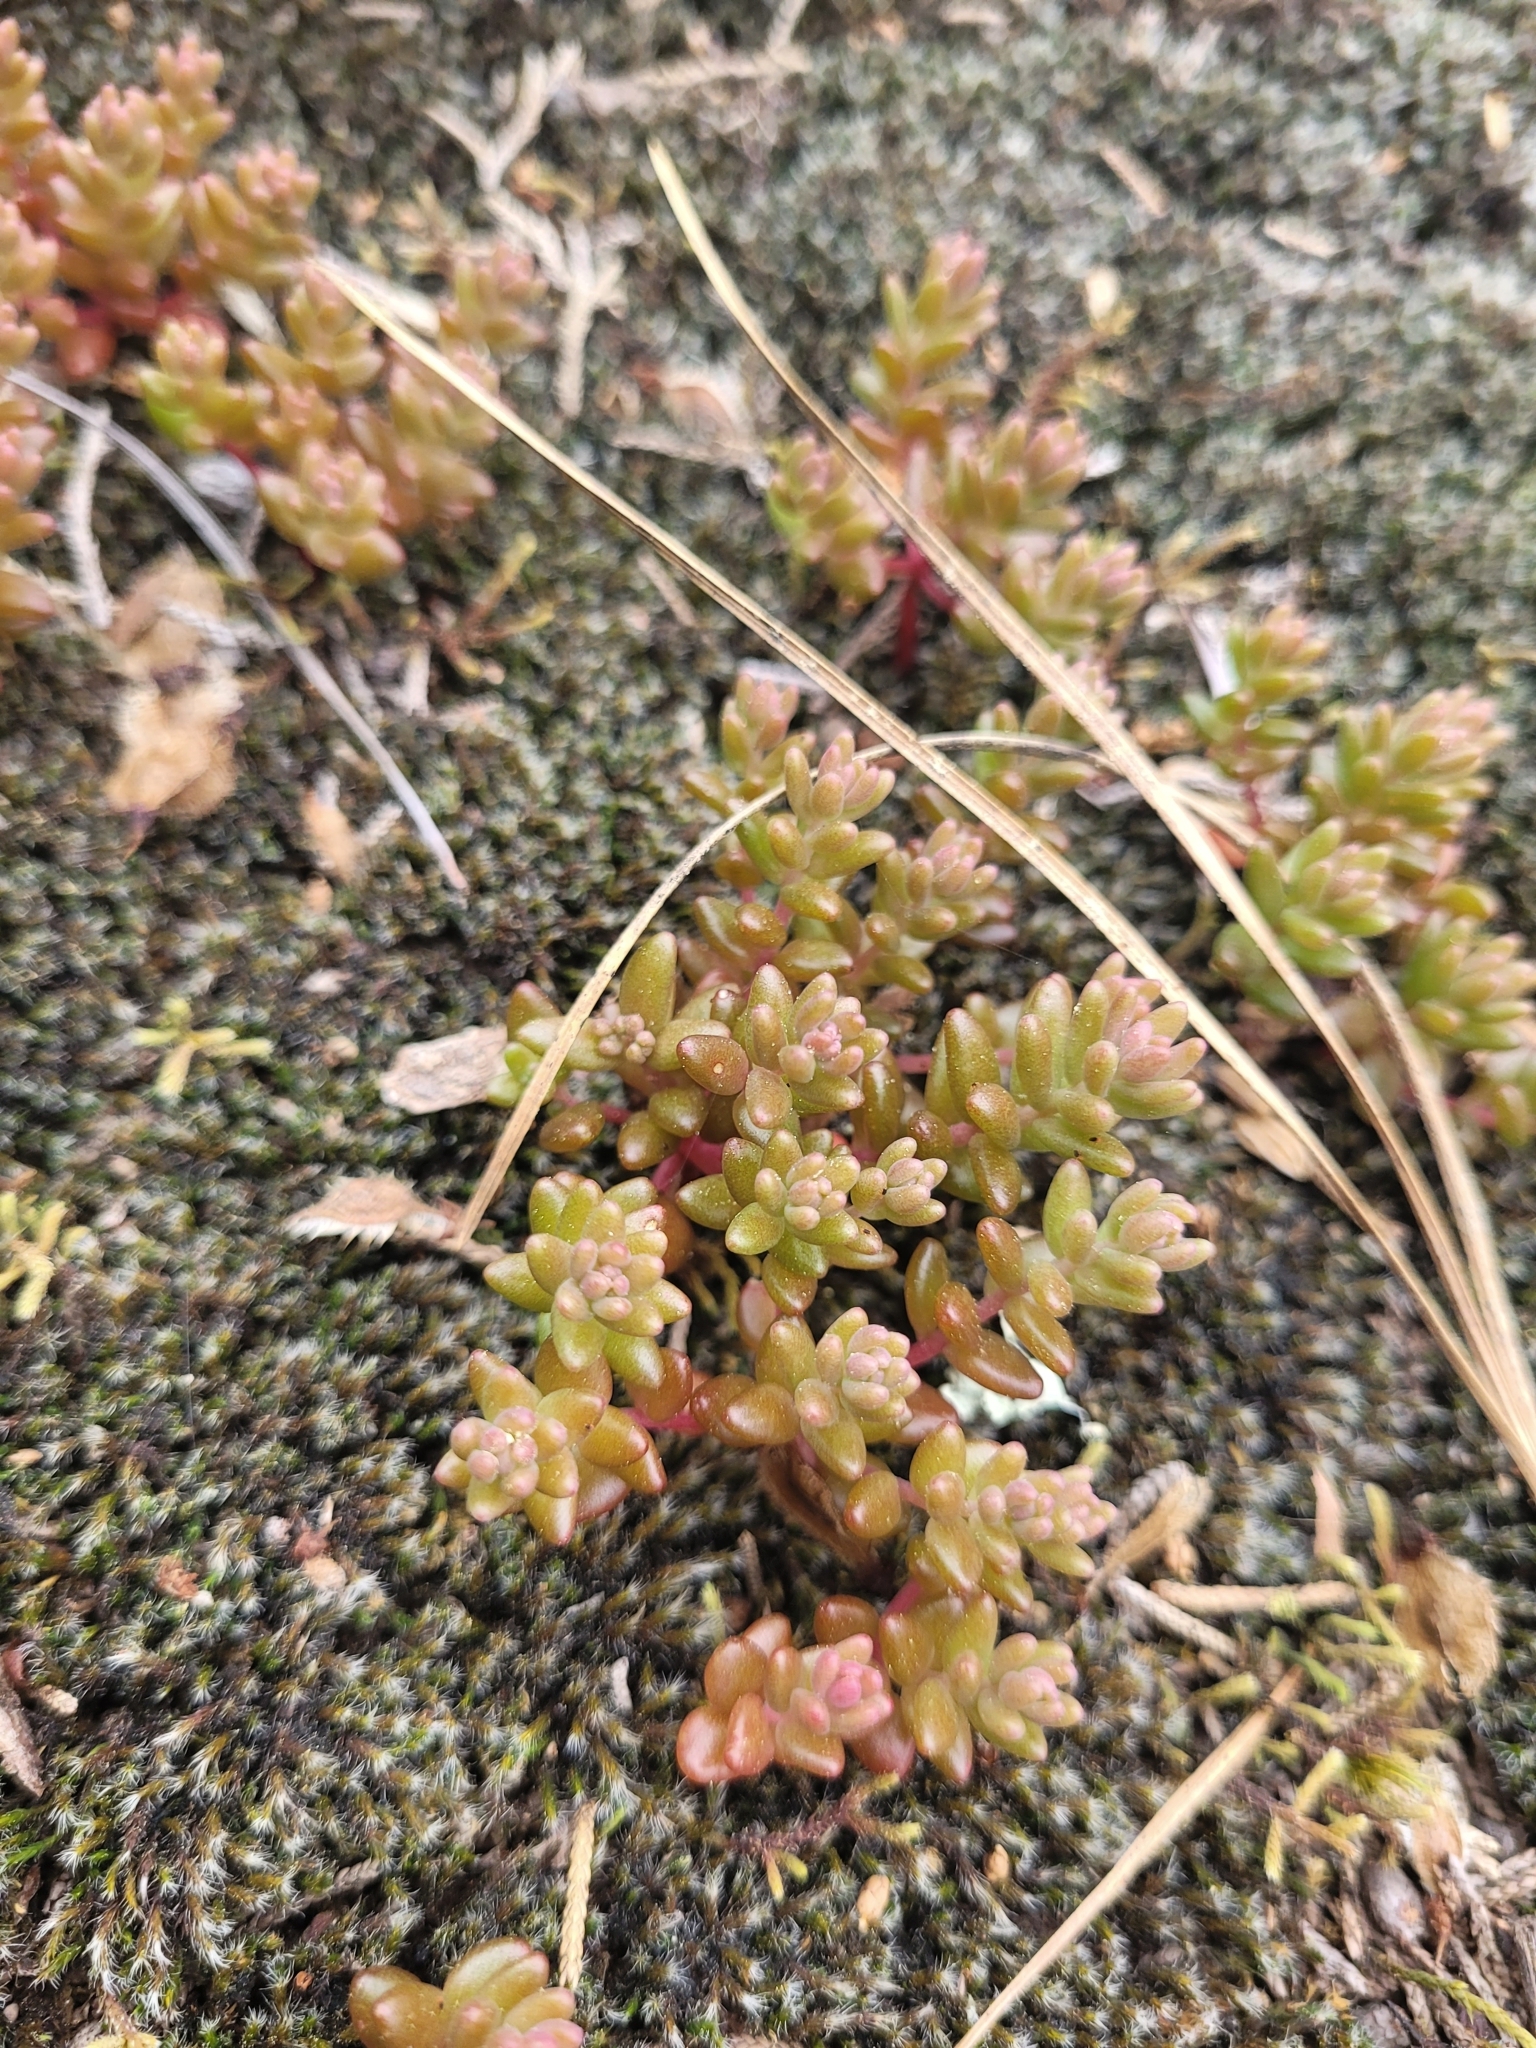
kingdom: Plantae
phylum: Tracheophyta
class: Magnoliopsida
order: Saxifragales
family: Crassulaceae
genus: Sedum
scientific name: Sedum smallii
